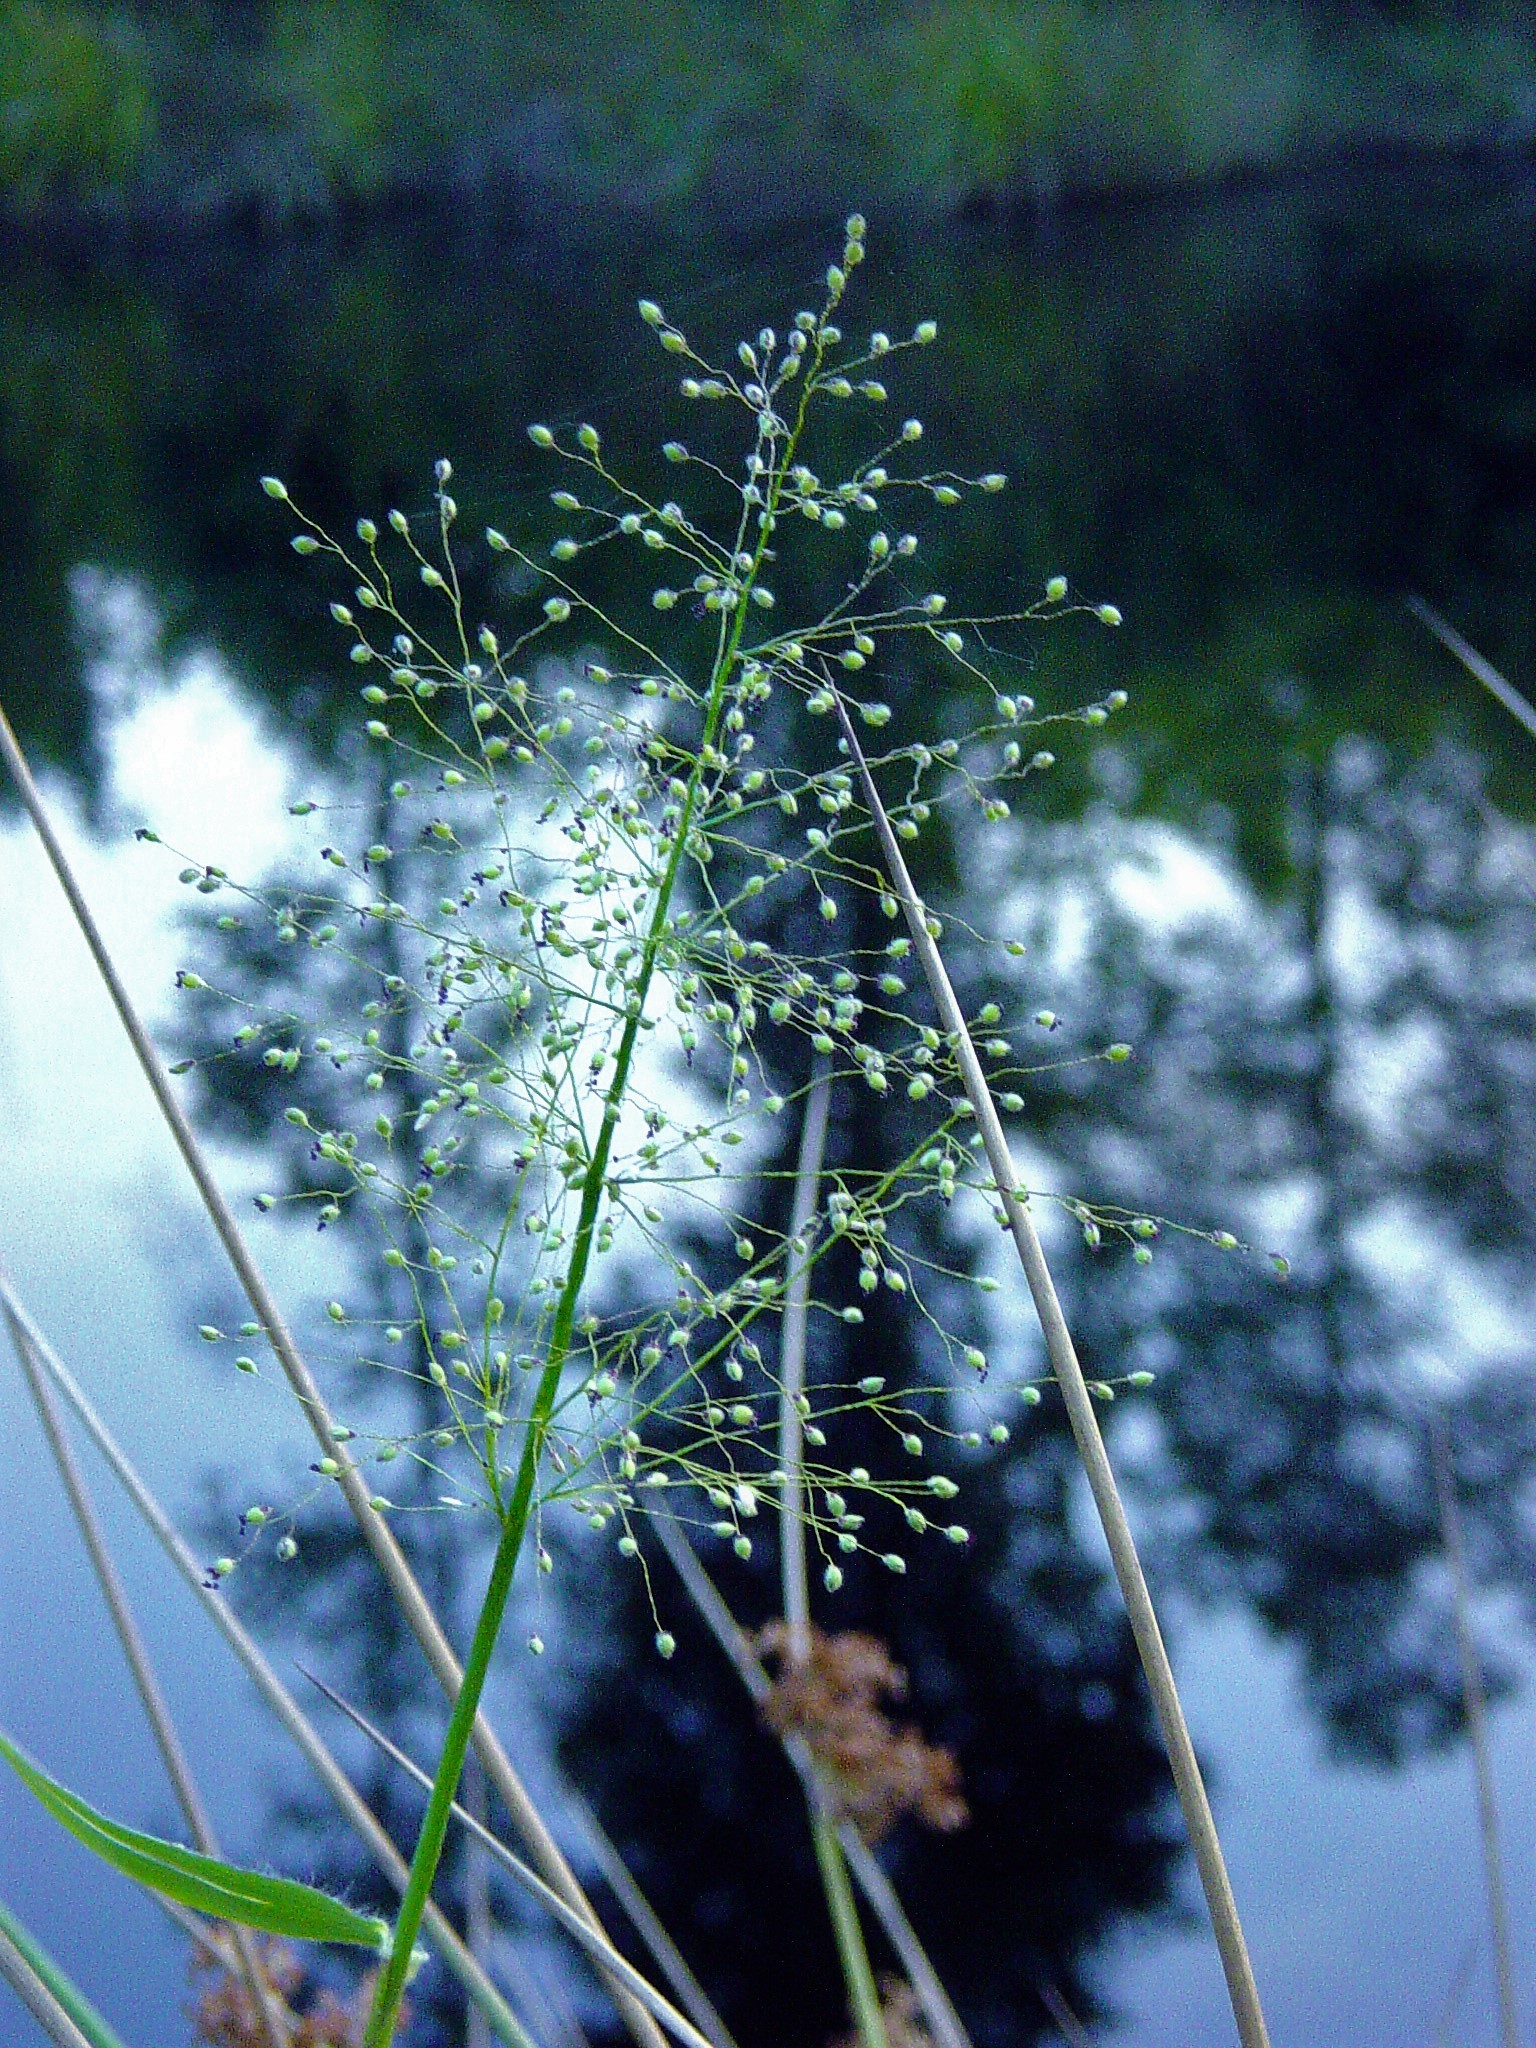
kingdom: Plantae
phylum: Tracheophyta
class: Liliopsida
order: Poales
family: Poaceae
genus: Dichanthelium
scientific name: Dichanthelium scabriusculum
